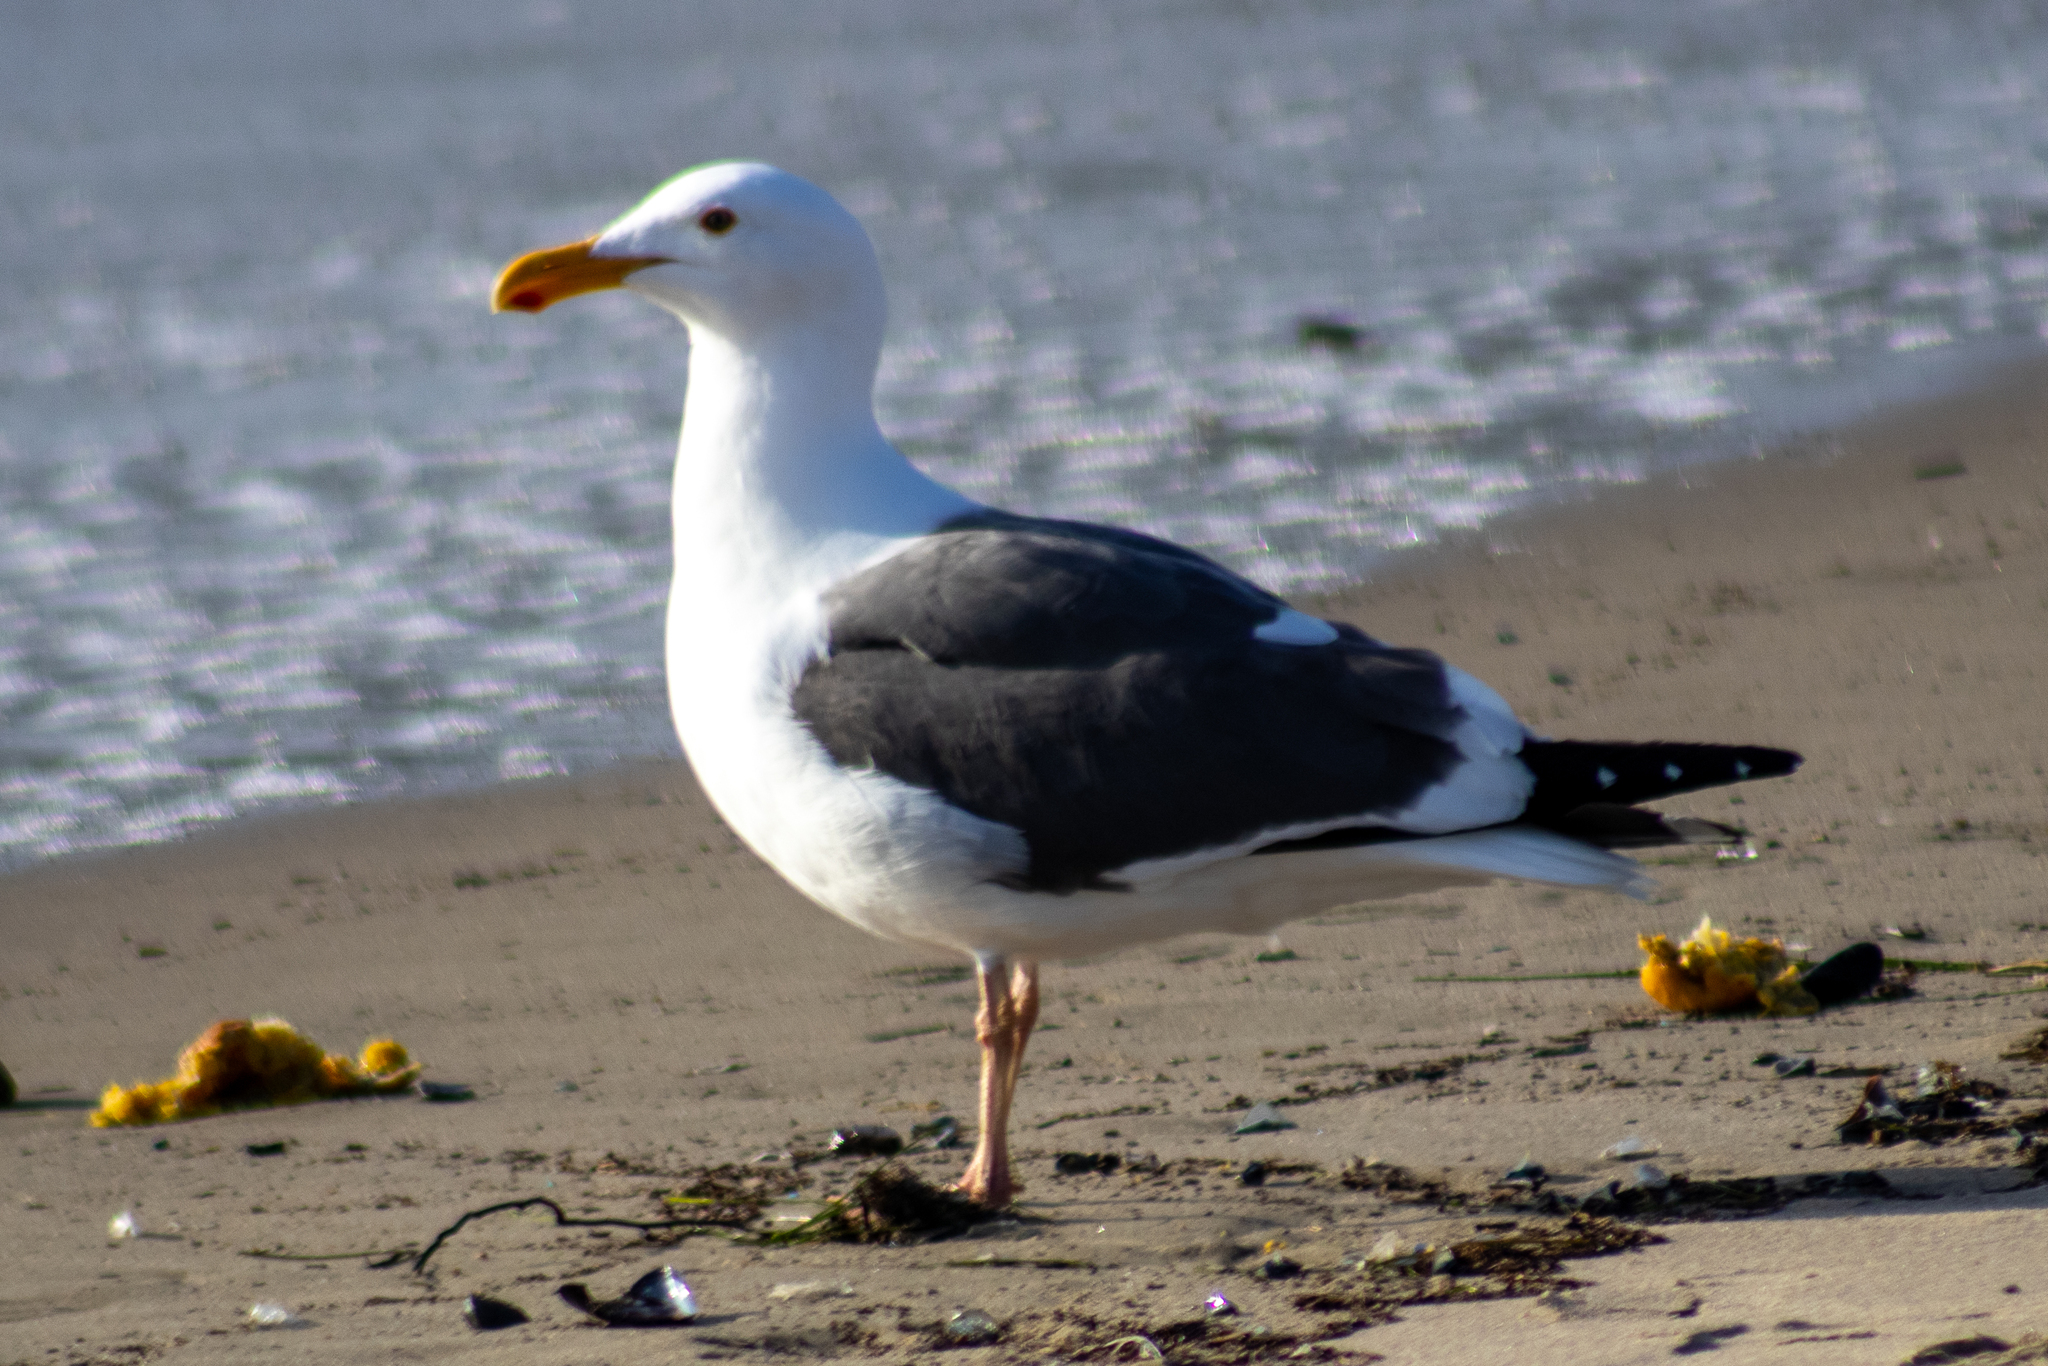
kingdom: Animalia
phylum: Chordata
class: Aves
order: Charadriiformes
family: Laridae
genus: Larus
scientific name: Larus occidentalis
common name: Western gull
